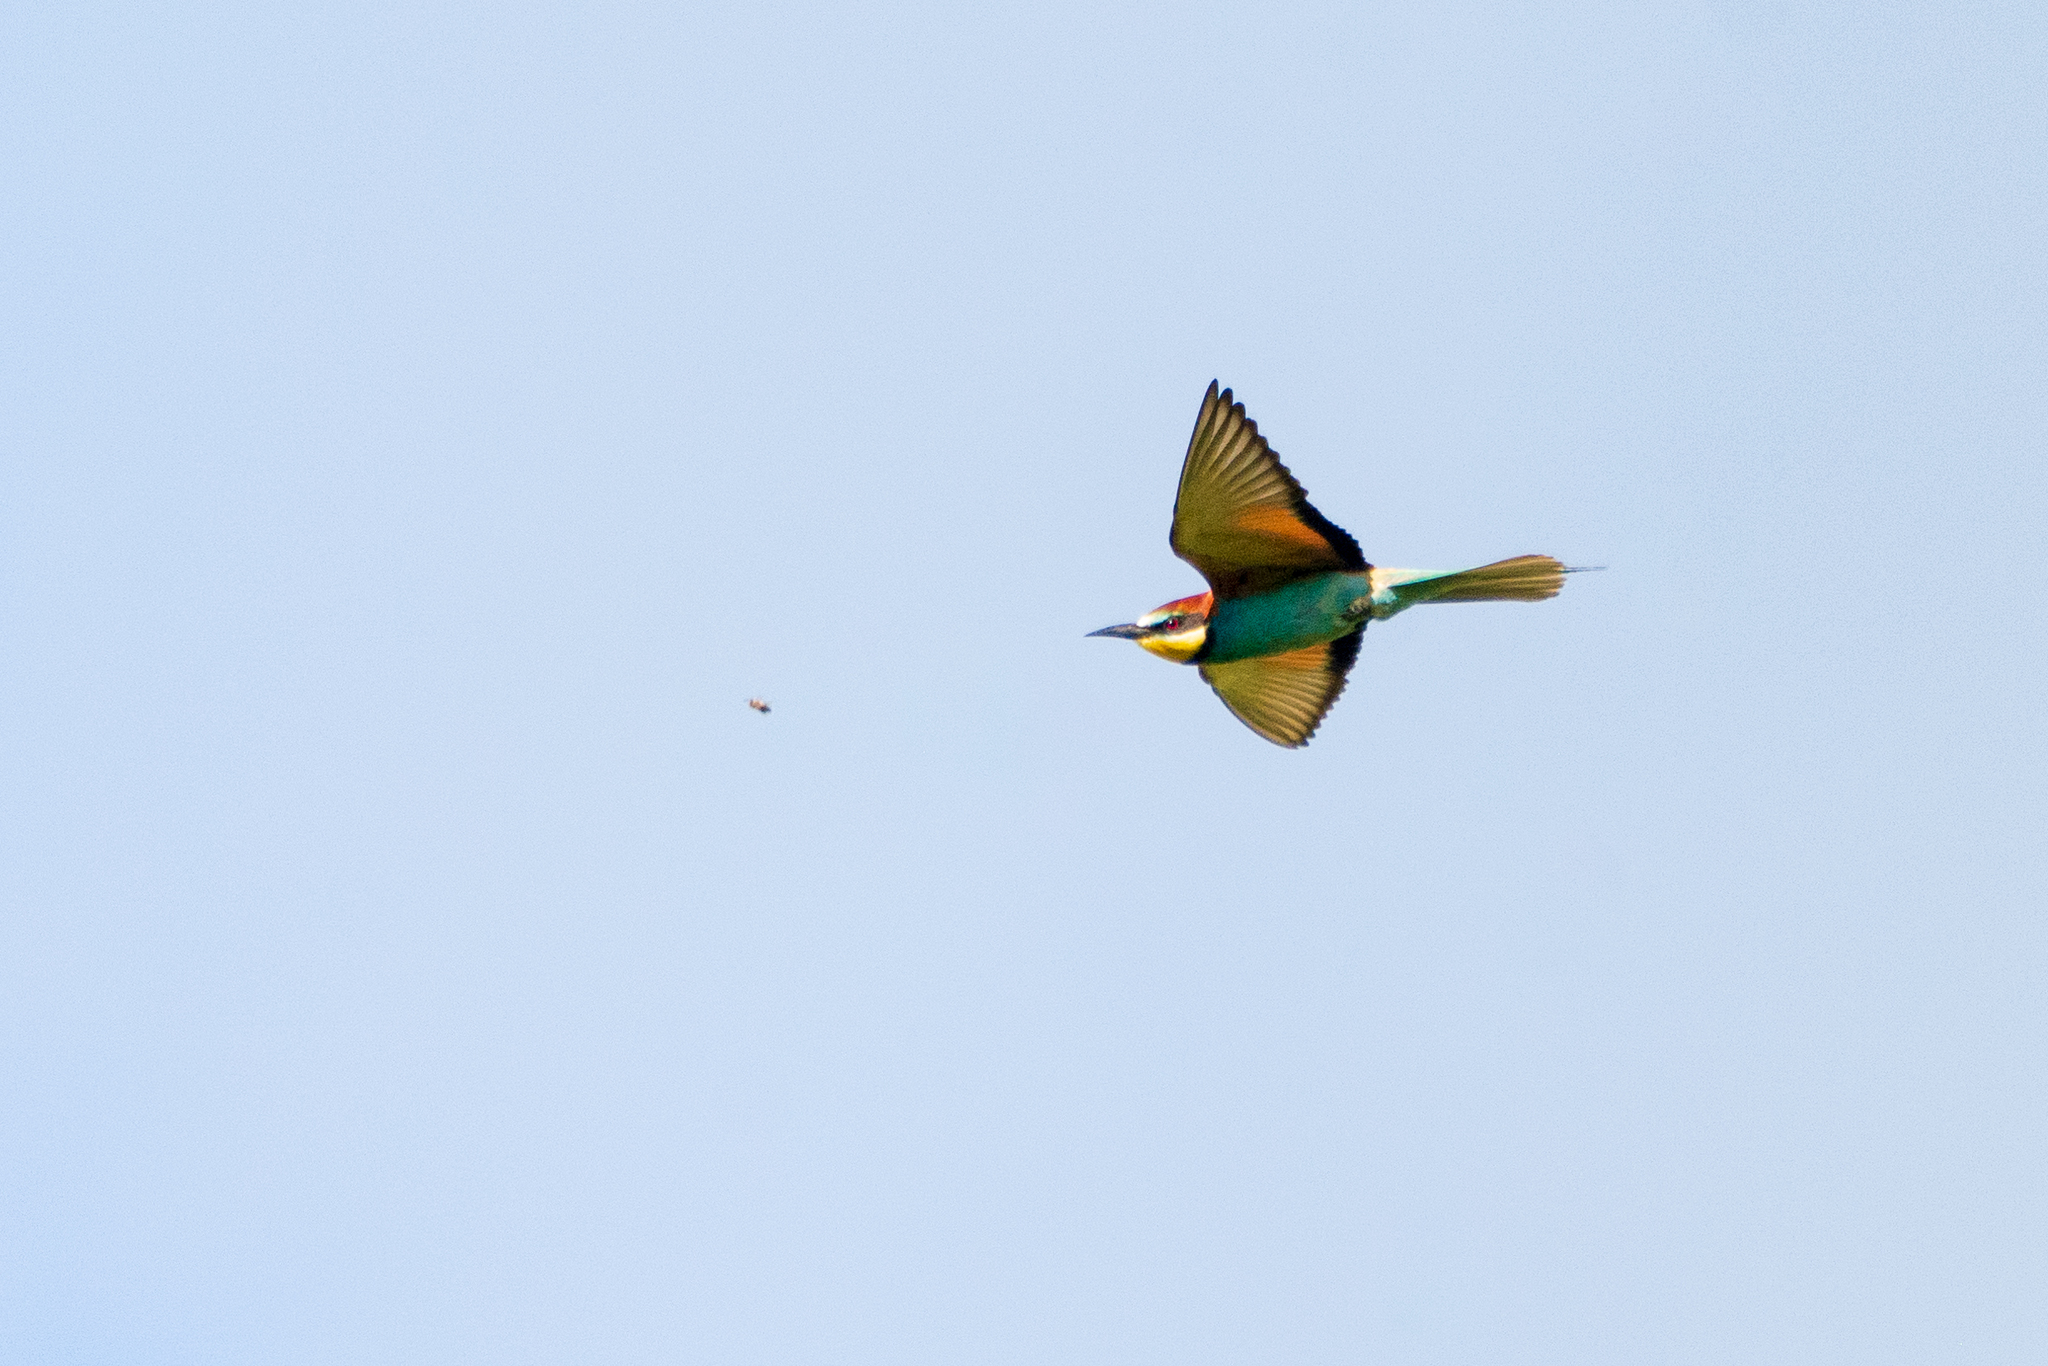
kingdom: Animalia
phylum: Chordata
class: Aves
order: Coraciiformes
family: Meropidae
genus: Merops
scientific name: Merops apiaster
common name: European bee-eater
